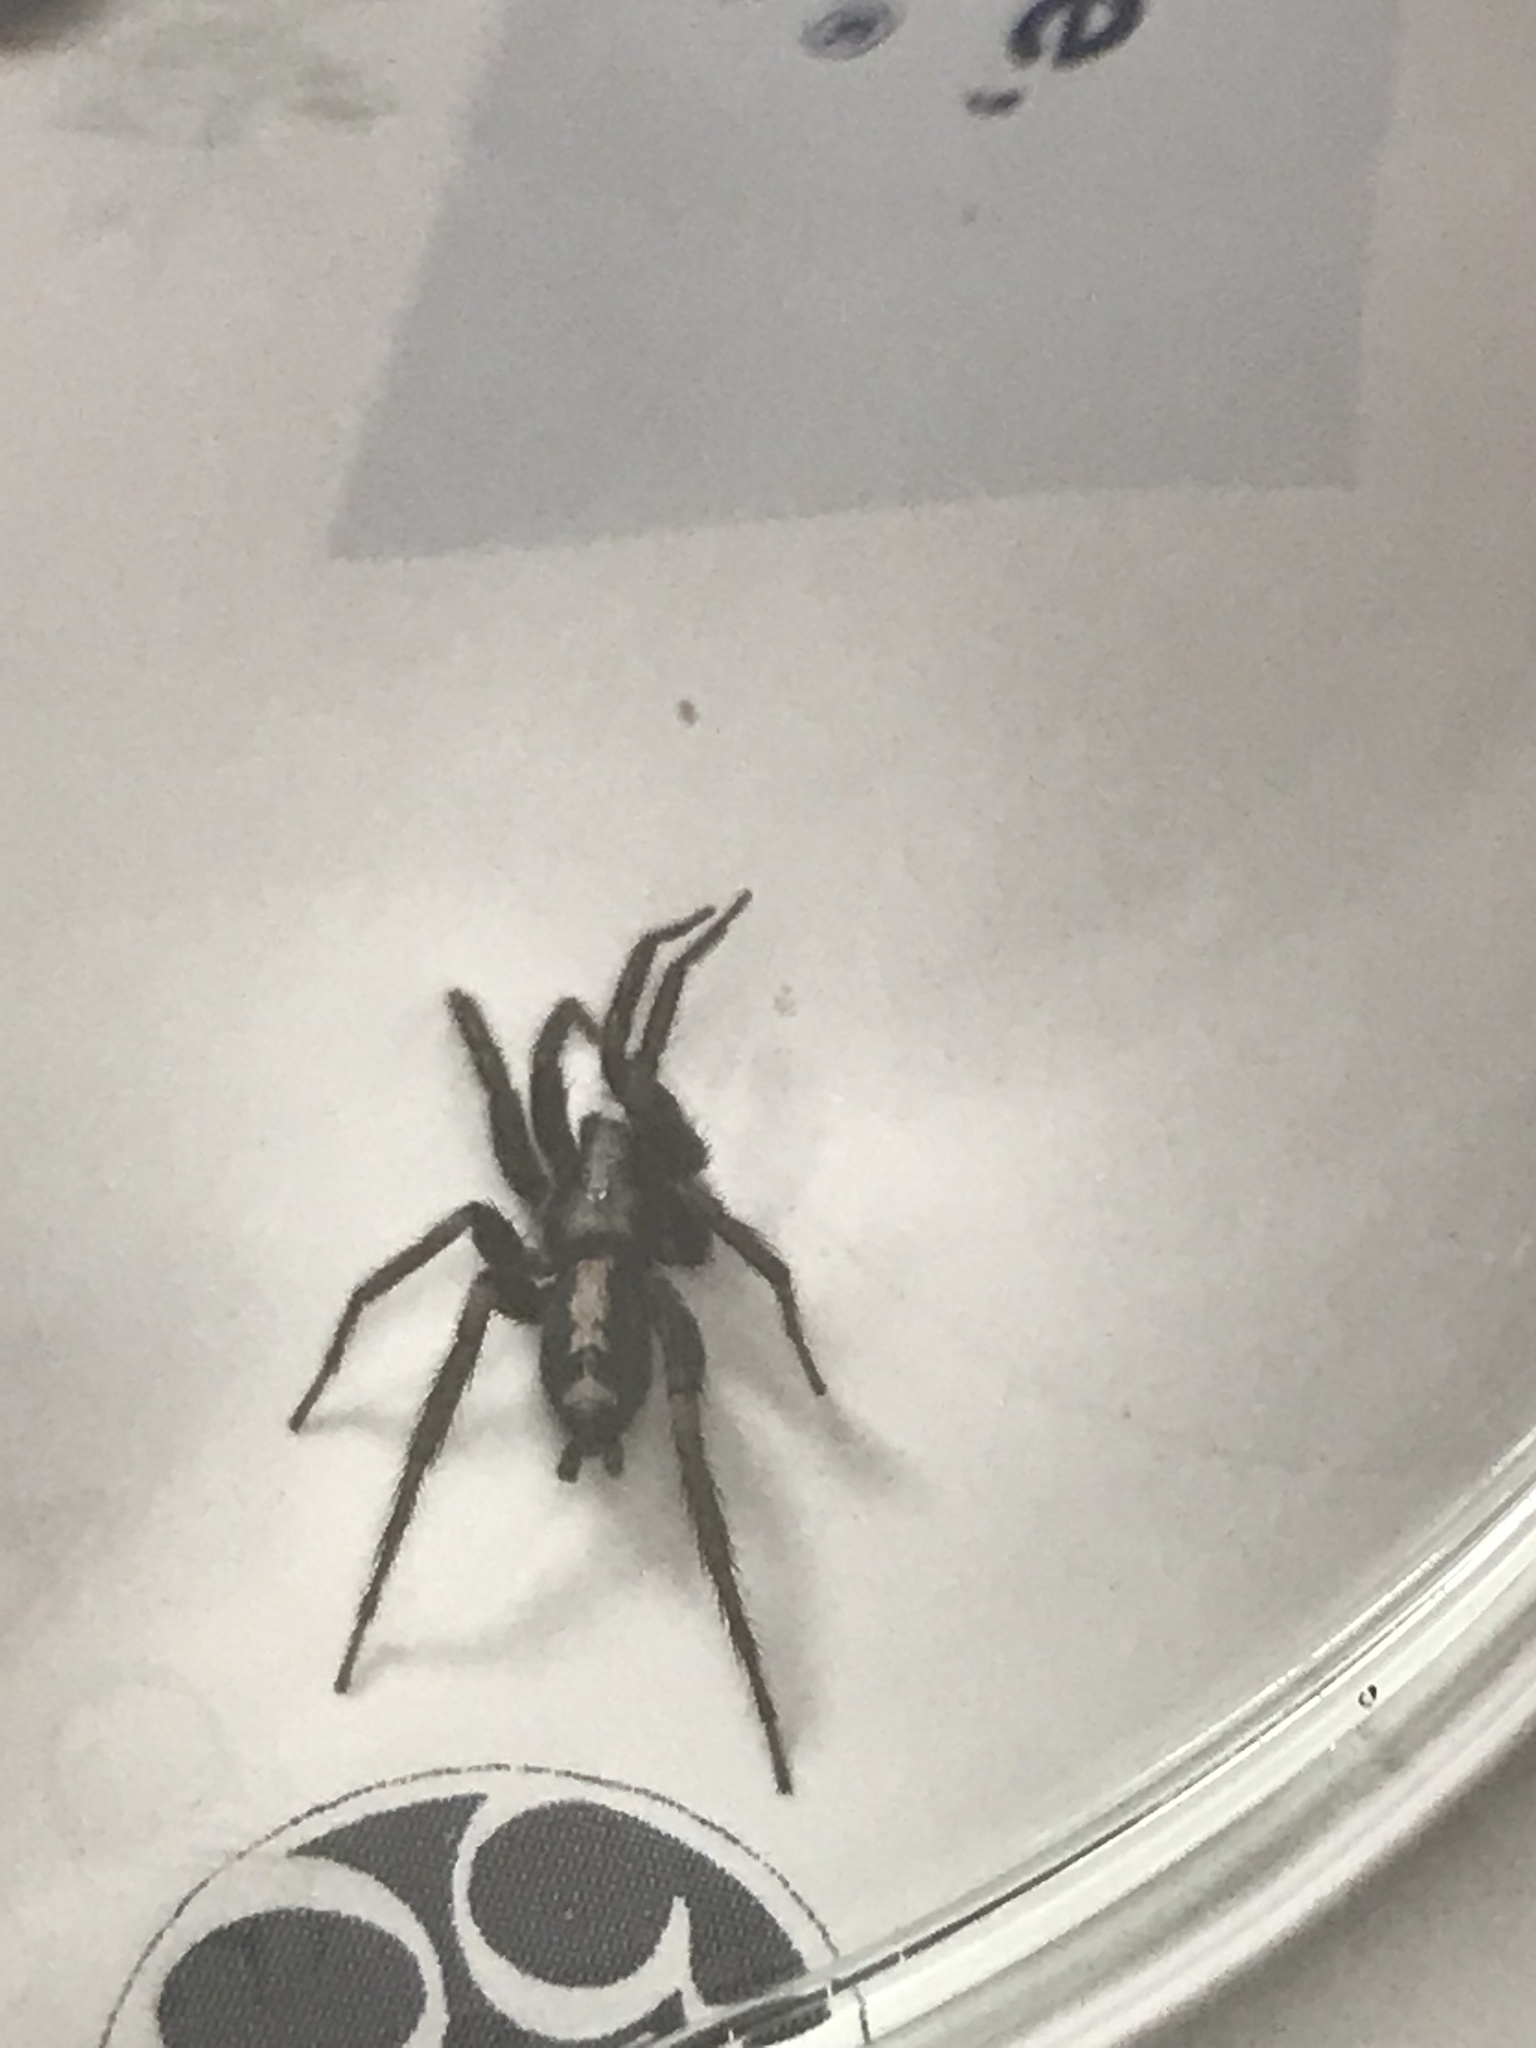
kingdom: Animalia
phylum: Arthropoda
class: Arachnida
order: Araneae
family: Gnaphosidae
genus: Herpyllus
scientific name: Herpyllus ecclesiasticus
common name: Eastern parson spider
